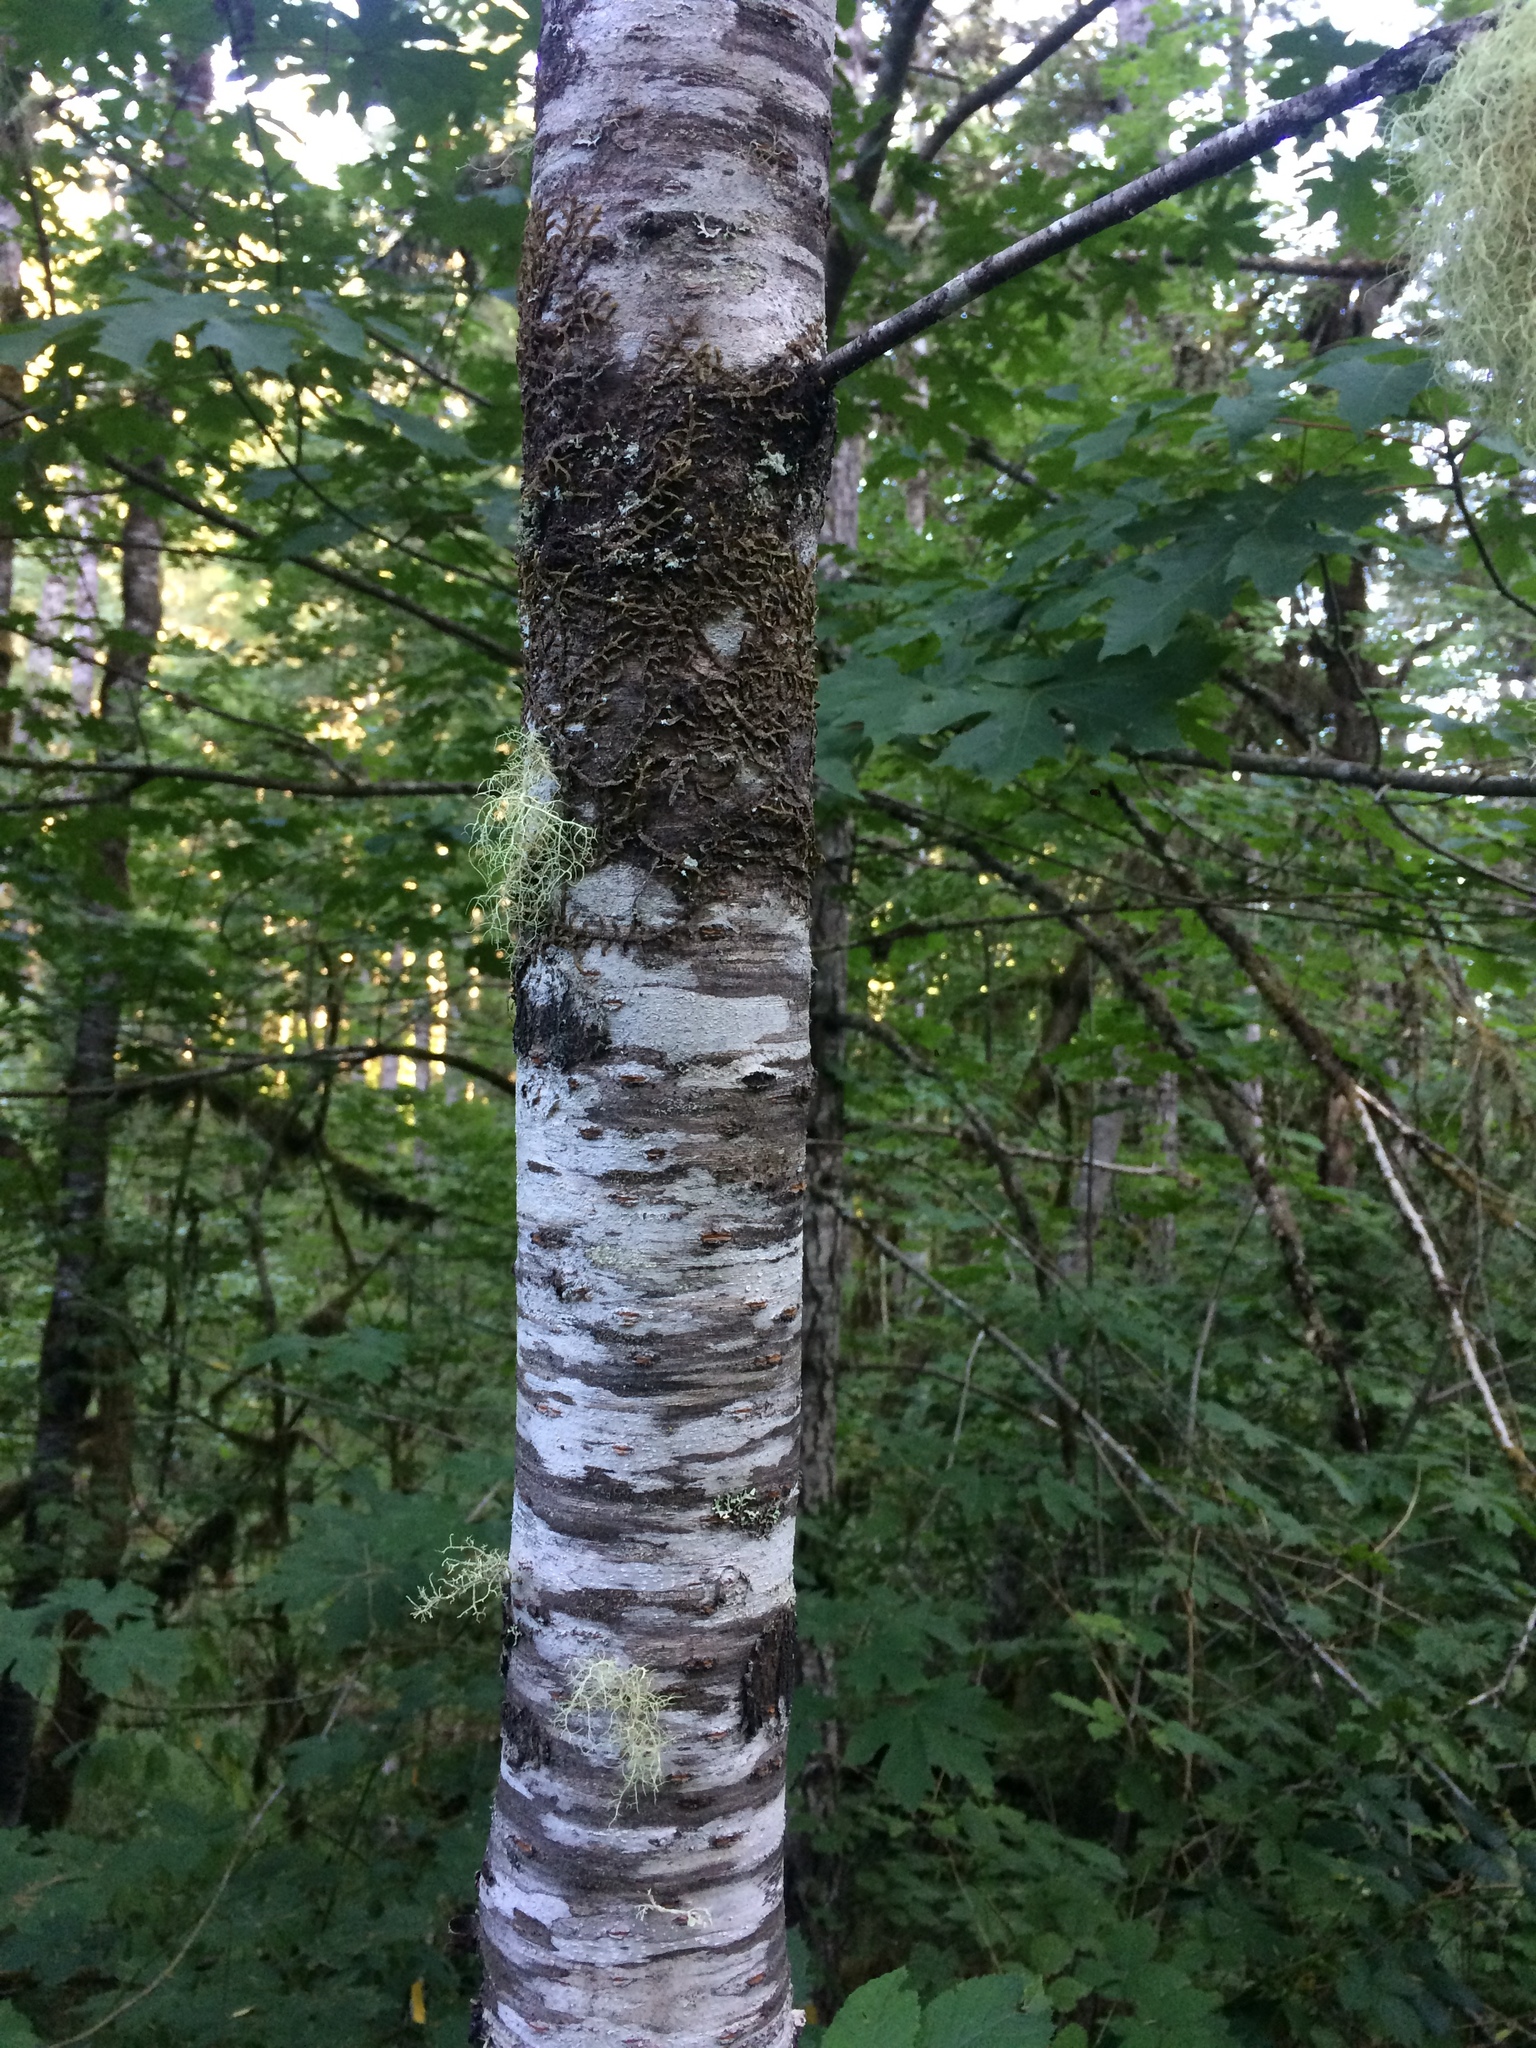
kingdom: Plantae
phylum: Tracheophyta
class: Magnoliopsida
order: Rosales
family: Rosaceae
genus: Prunus
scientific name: Prunus emarginata
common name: Bitter cherry
